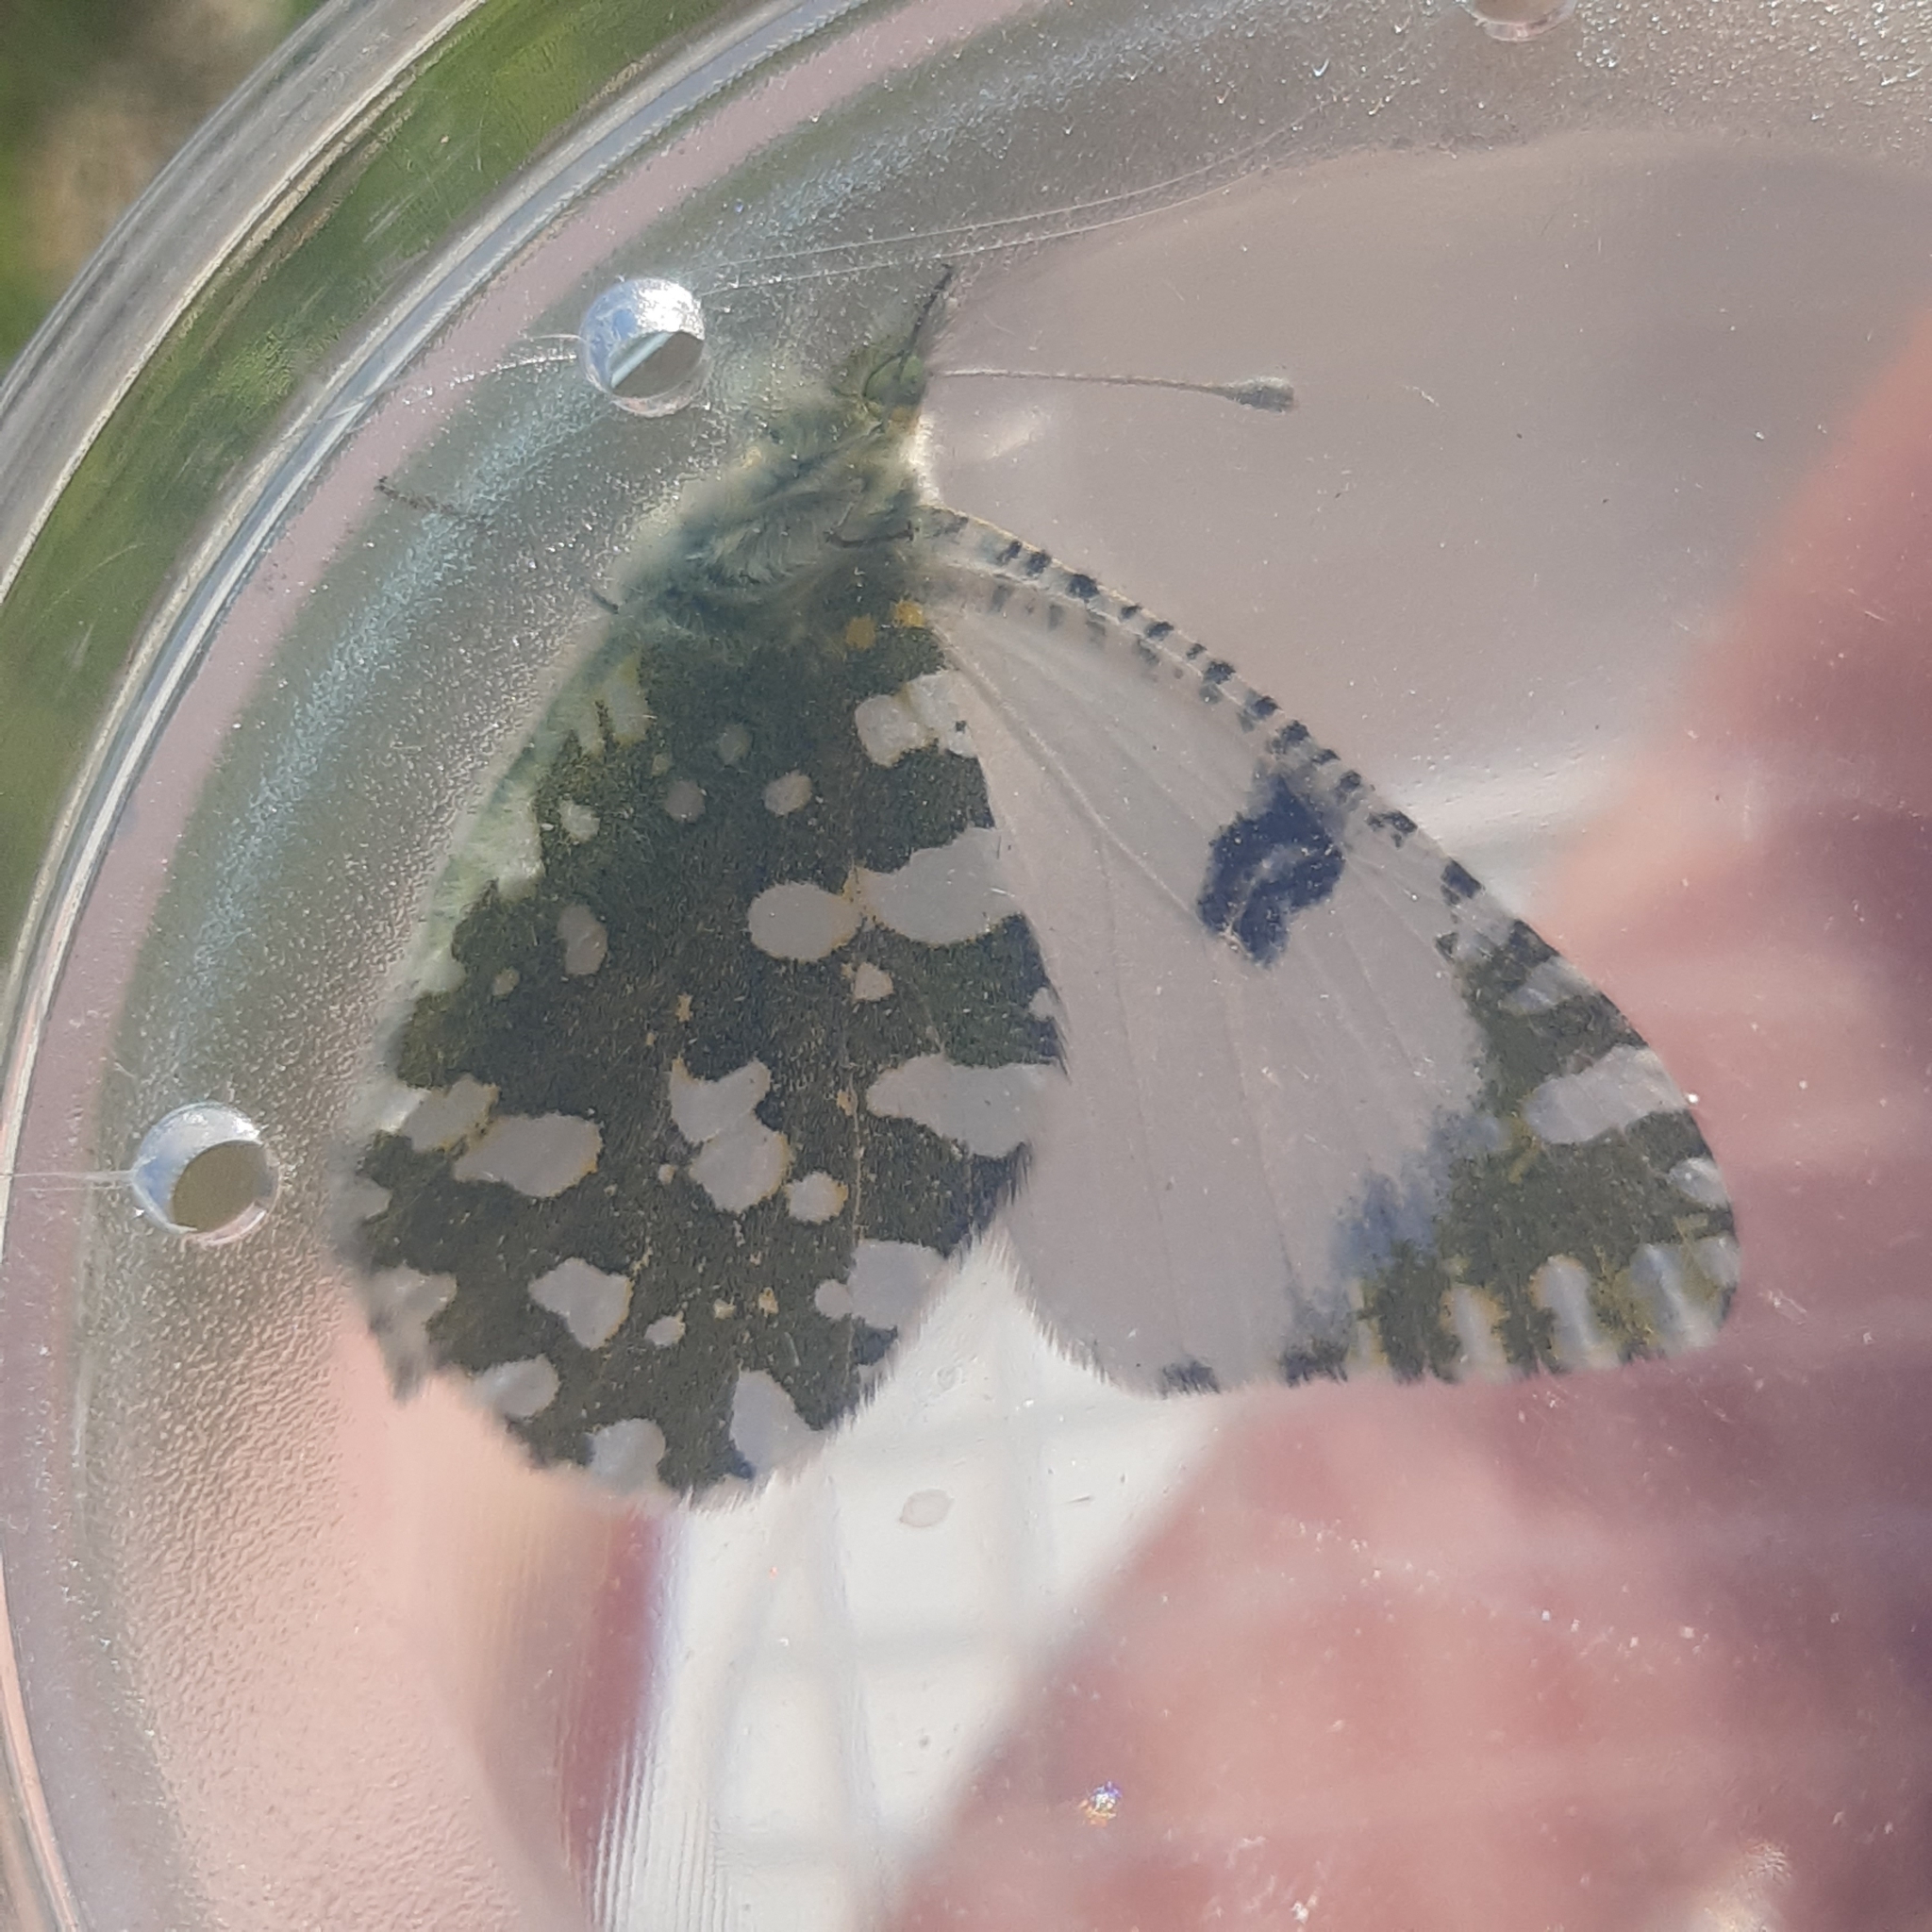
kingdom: Animalia
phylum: Arthropoda
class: Insecta
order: Lepidoptera
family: Pieridae
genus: Euchloe
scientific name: Euchloe crameri
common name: Western dappled white
